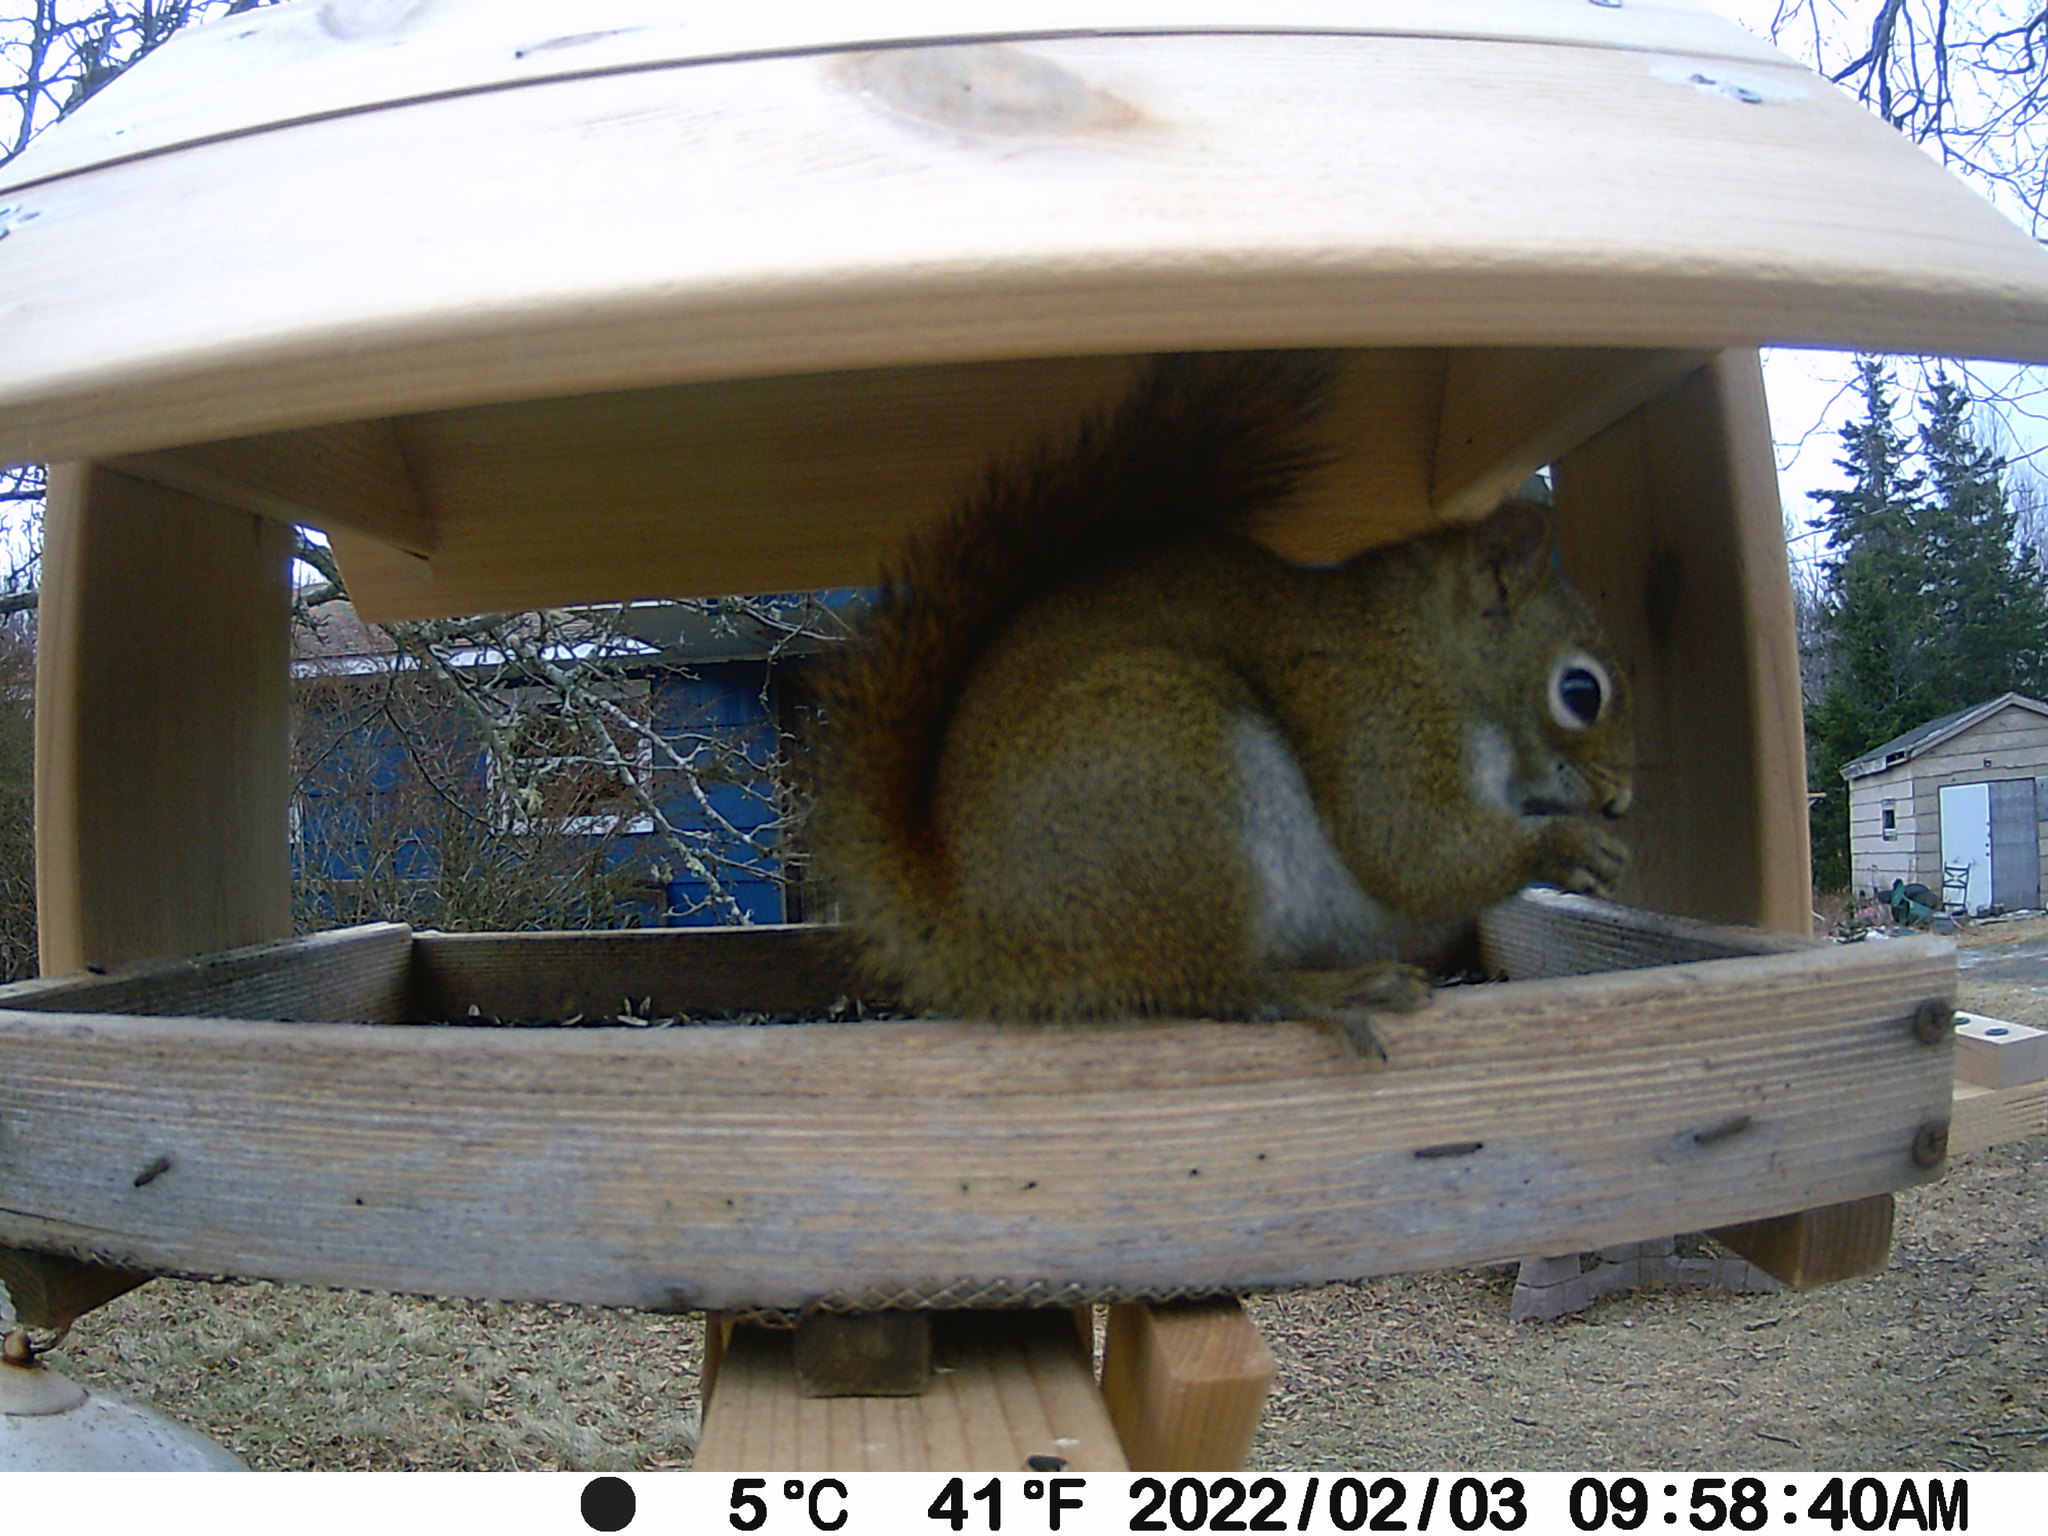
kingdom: Animalia
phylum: Chordata
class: Mammalia
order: Rodentia
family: Sciuridae
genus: Tamiasciurus
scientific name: Tamiasciurus hudsonicus
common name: Red squirrel
